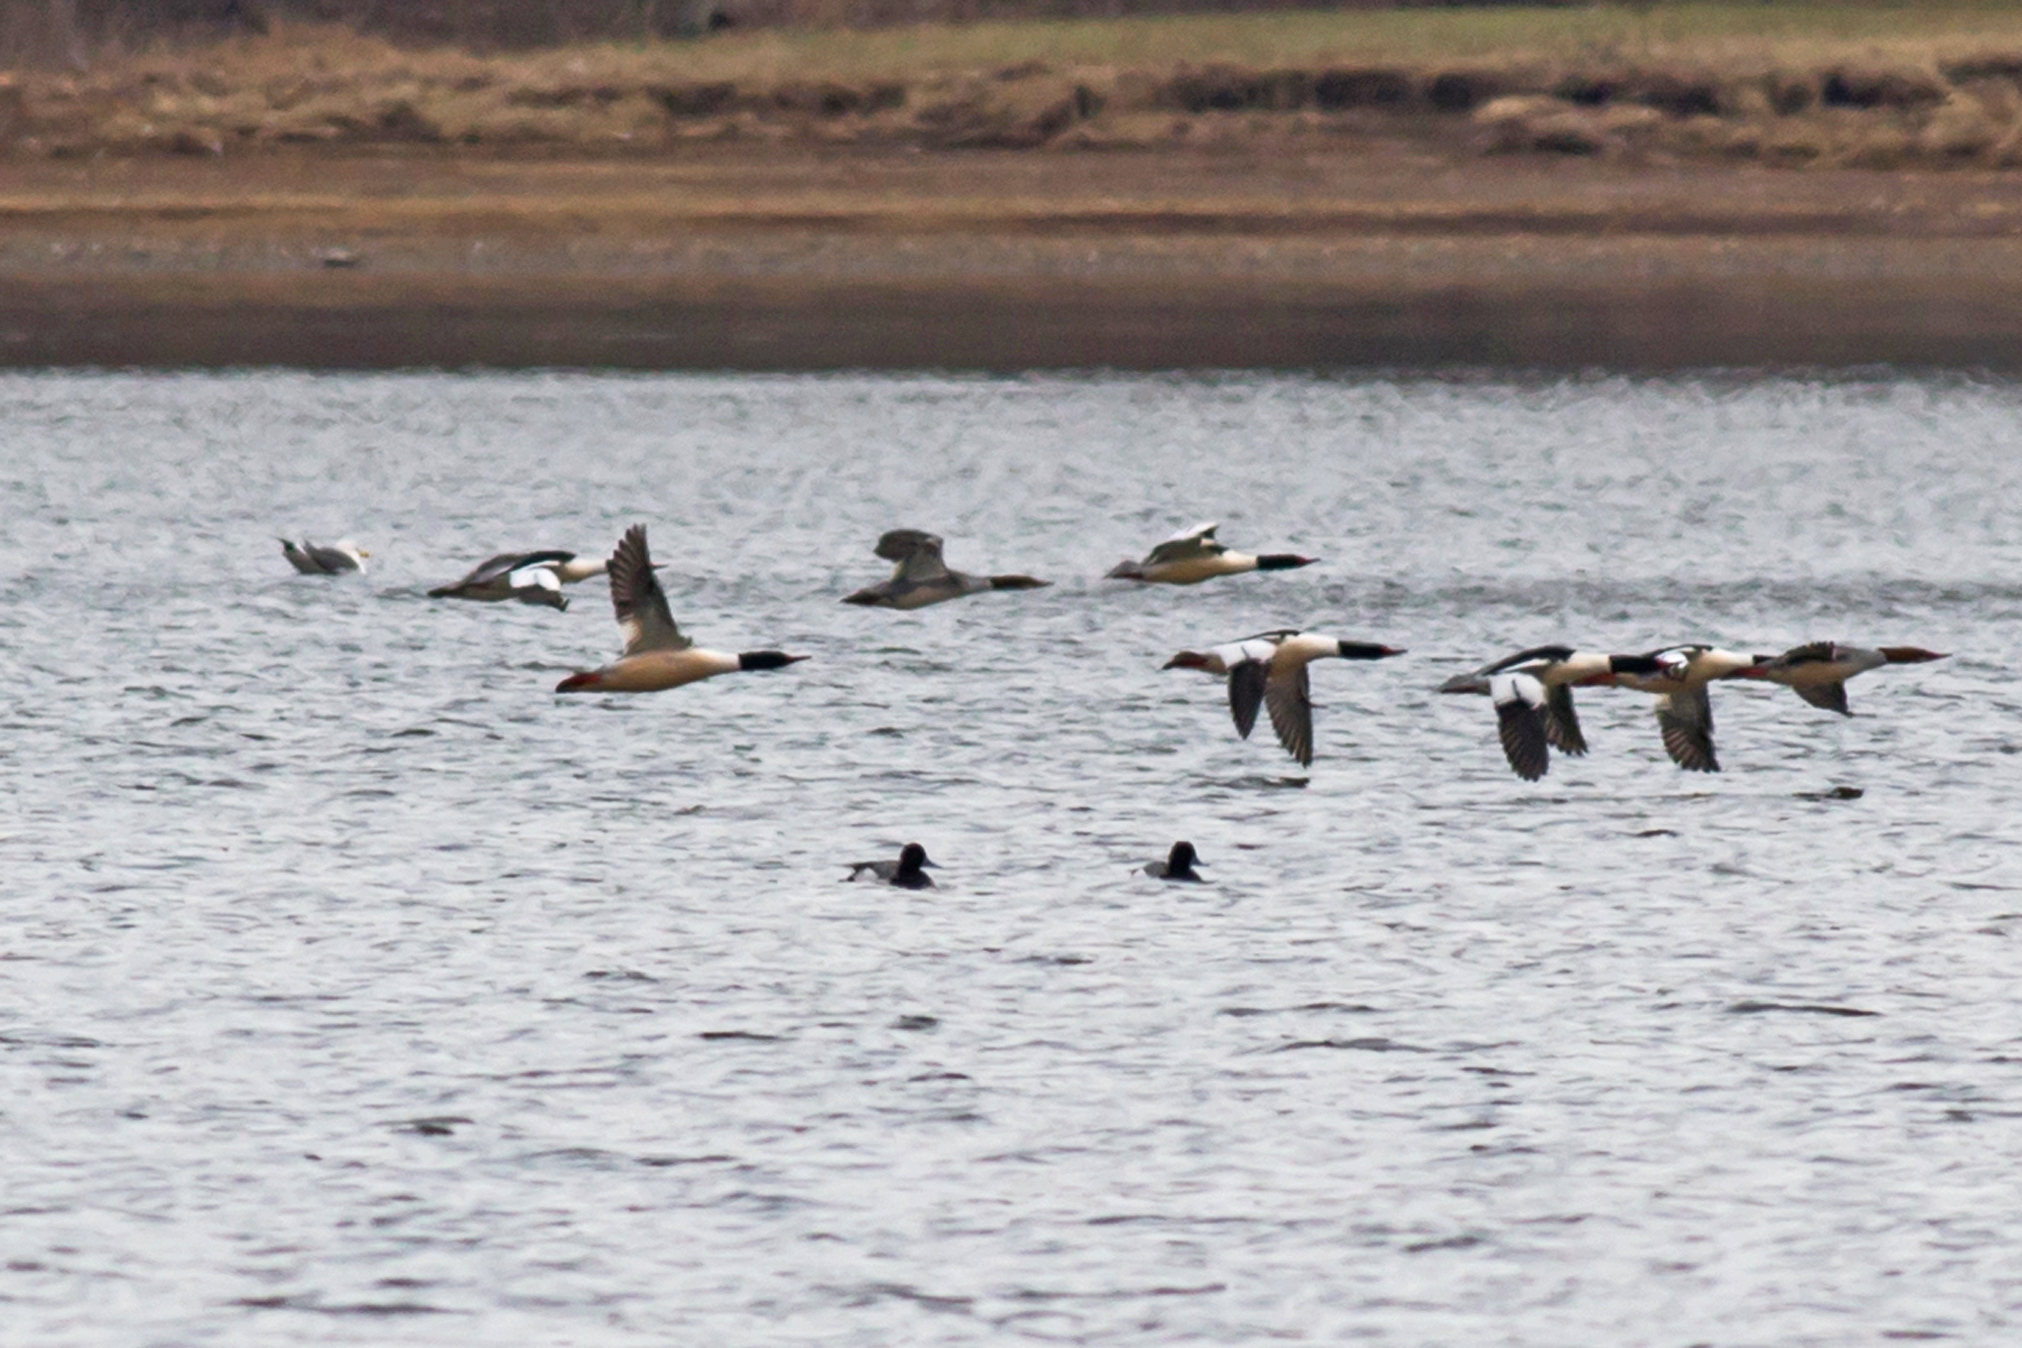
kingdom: Animalia
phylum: Chordata
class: Aves
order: Anseriformes
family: Anatidae
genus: Aythya
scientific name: Aythya affinis
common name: Lesser scaup
